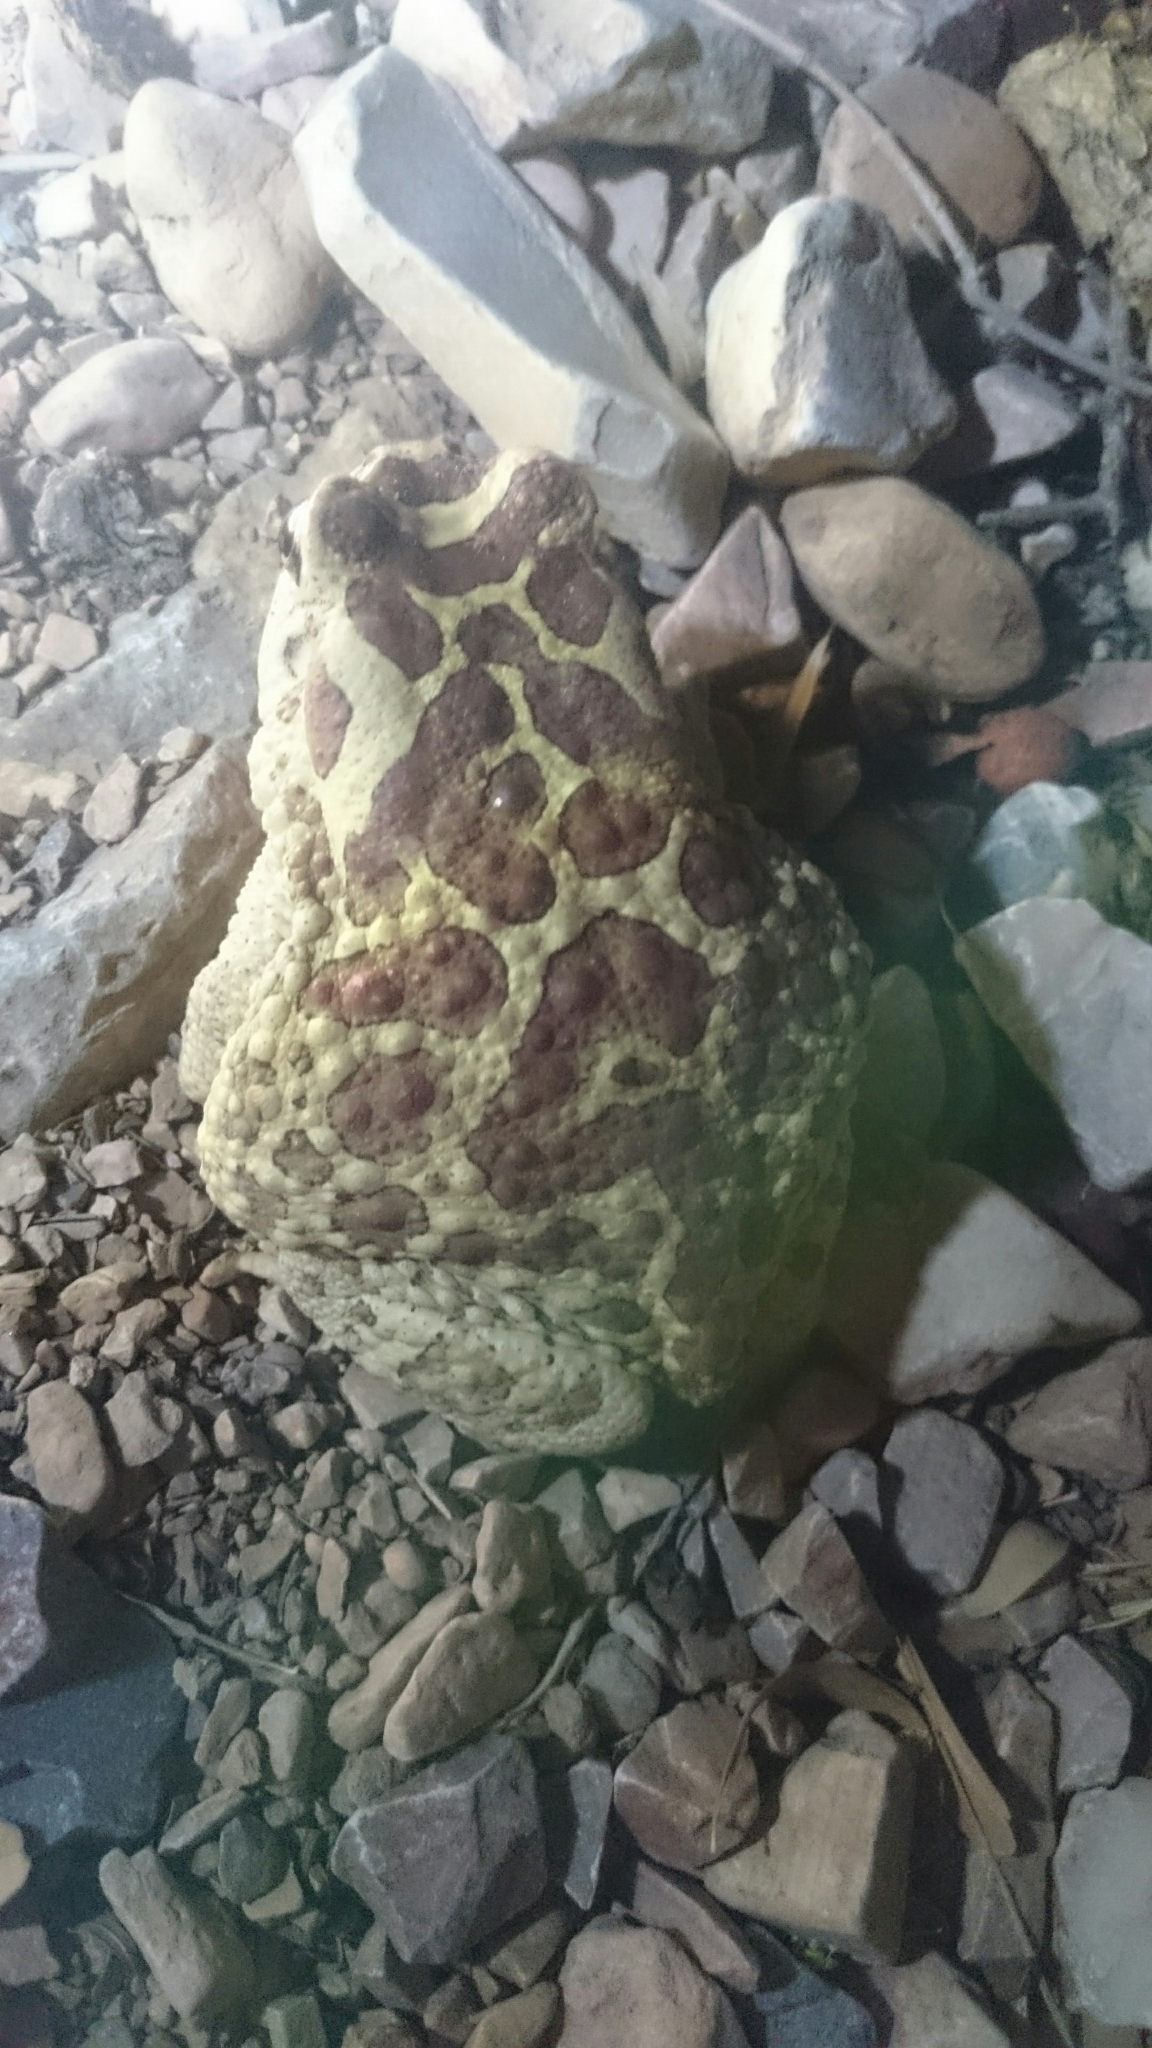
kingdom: Animalia
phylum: Chordata
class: Amphibia
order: Anura
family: Bufonidae
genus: Sclerophrys
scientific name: Sclerophrys mauritanica
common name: Berber toad
